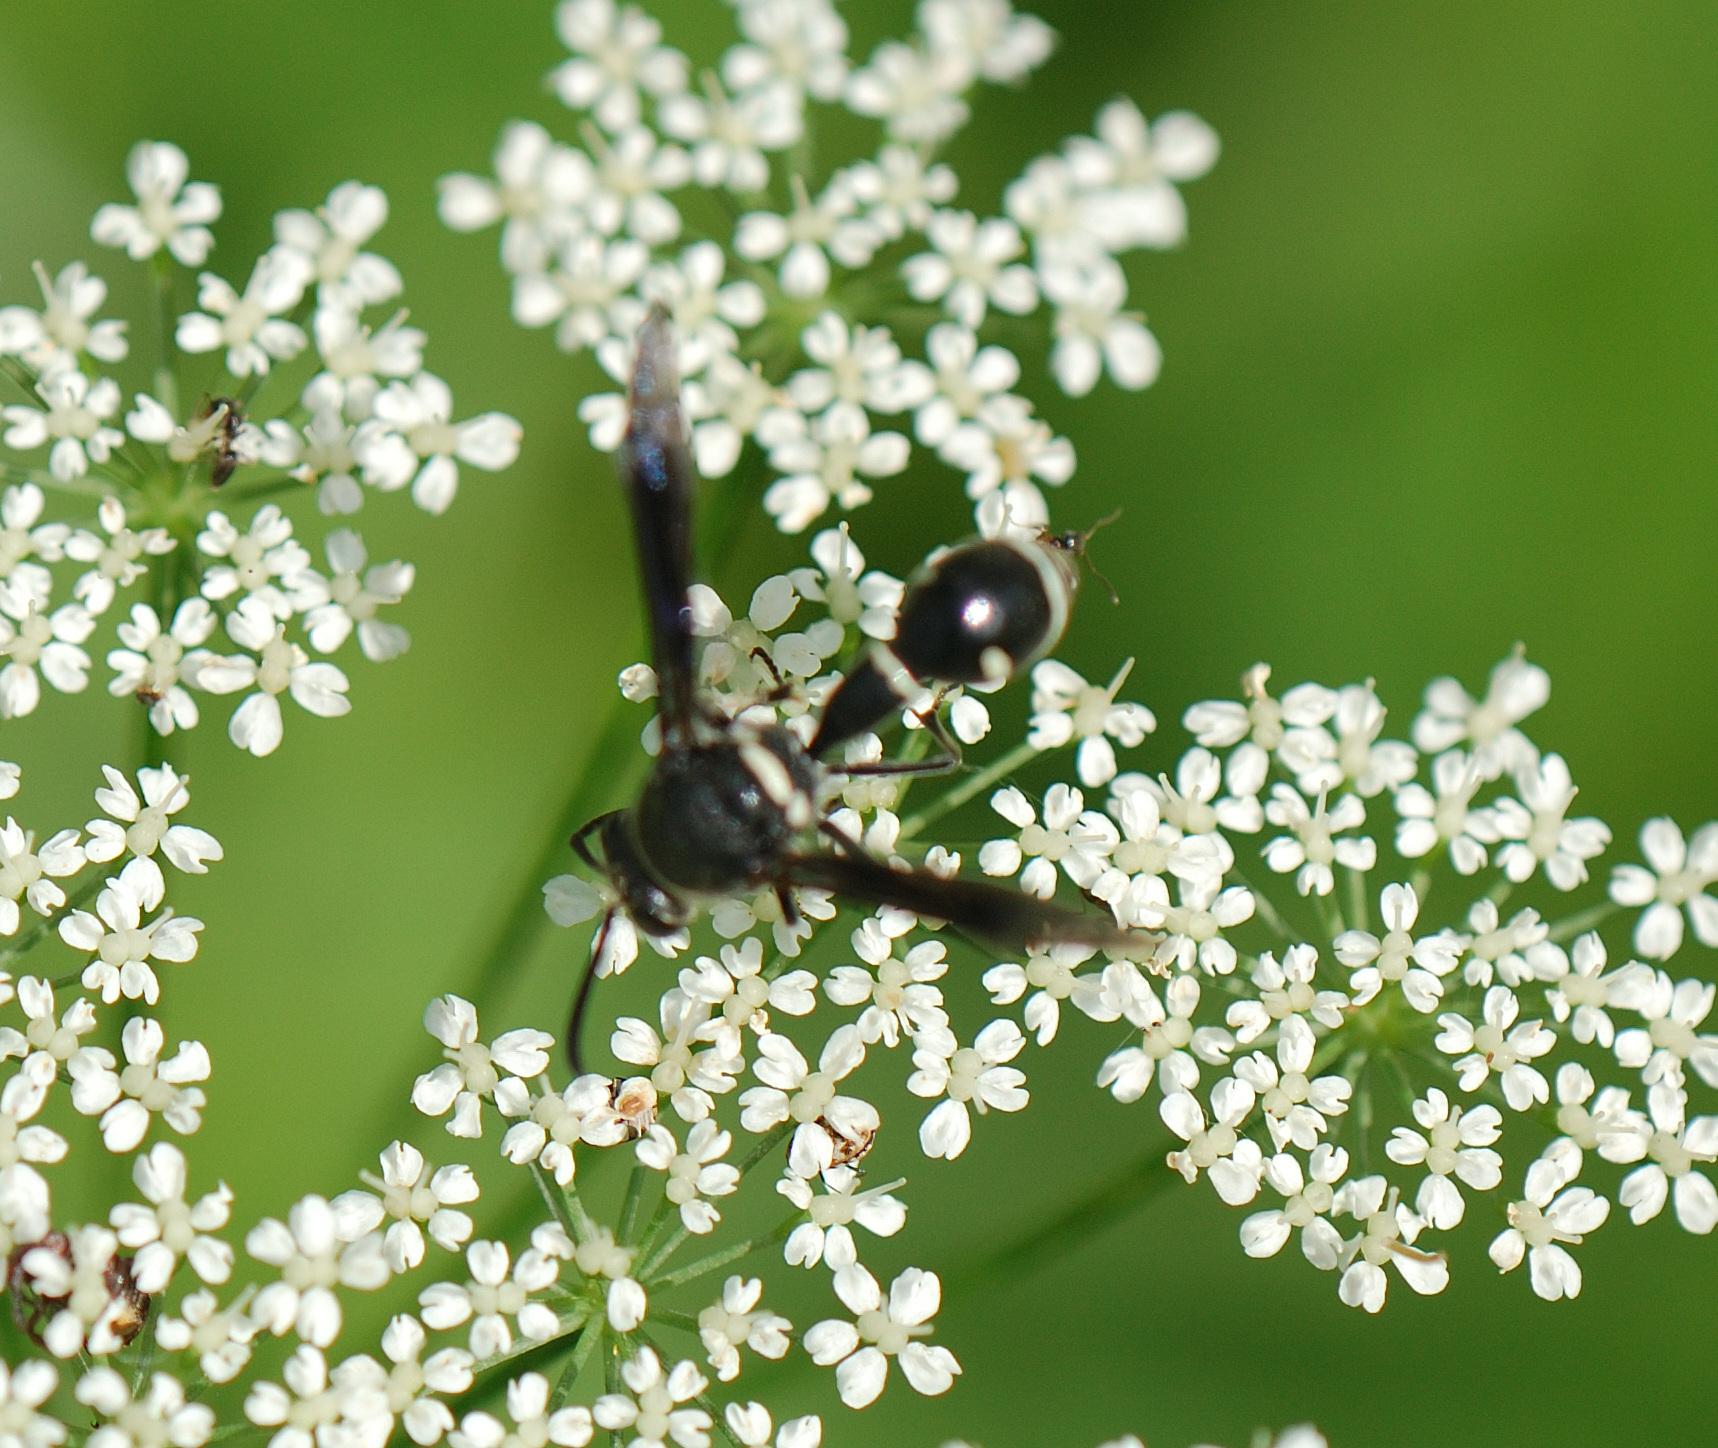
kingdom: Animalia
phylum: Arthropoda
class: Insecta
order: Hymenoptera
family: Vespidae
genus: Eumenes
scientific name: Eumenes fraternus
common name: Fraternal potter wasp
